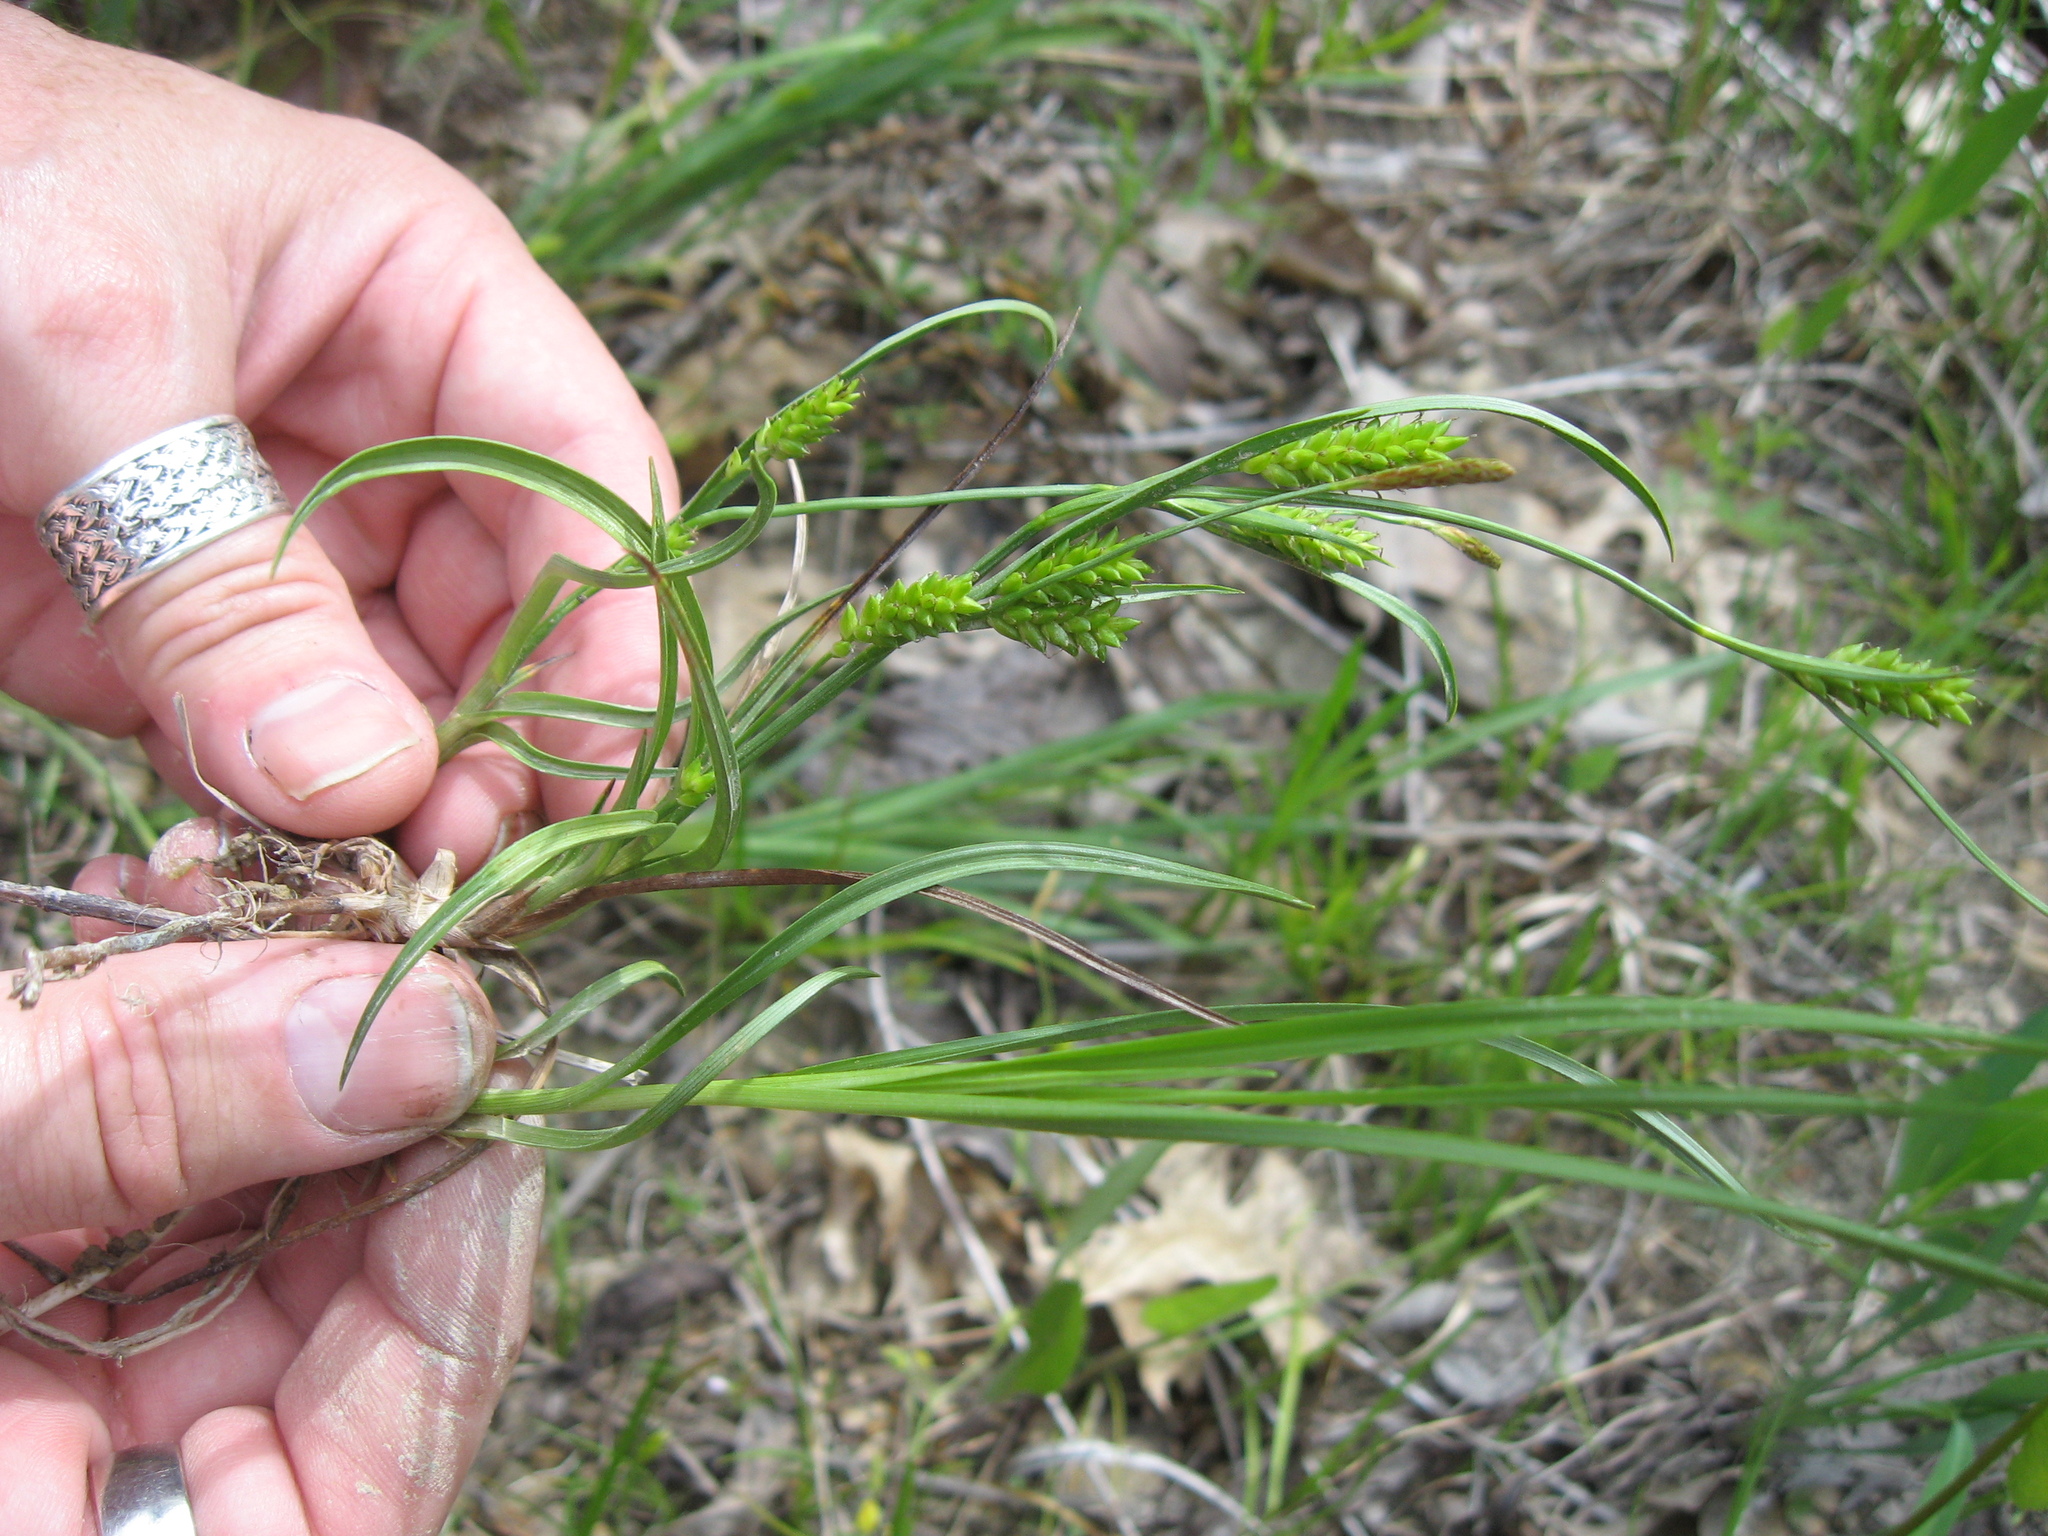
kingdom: Plantae
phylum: Tracheophyta
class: Liliopsida
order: Poales
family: Cyperaceae
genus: Carex
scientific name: Carex crawei
